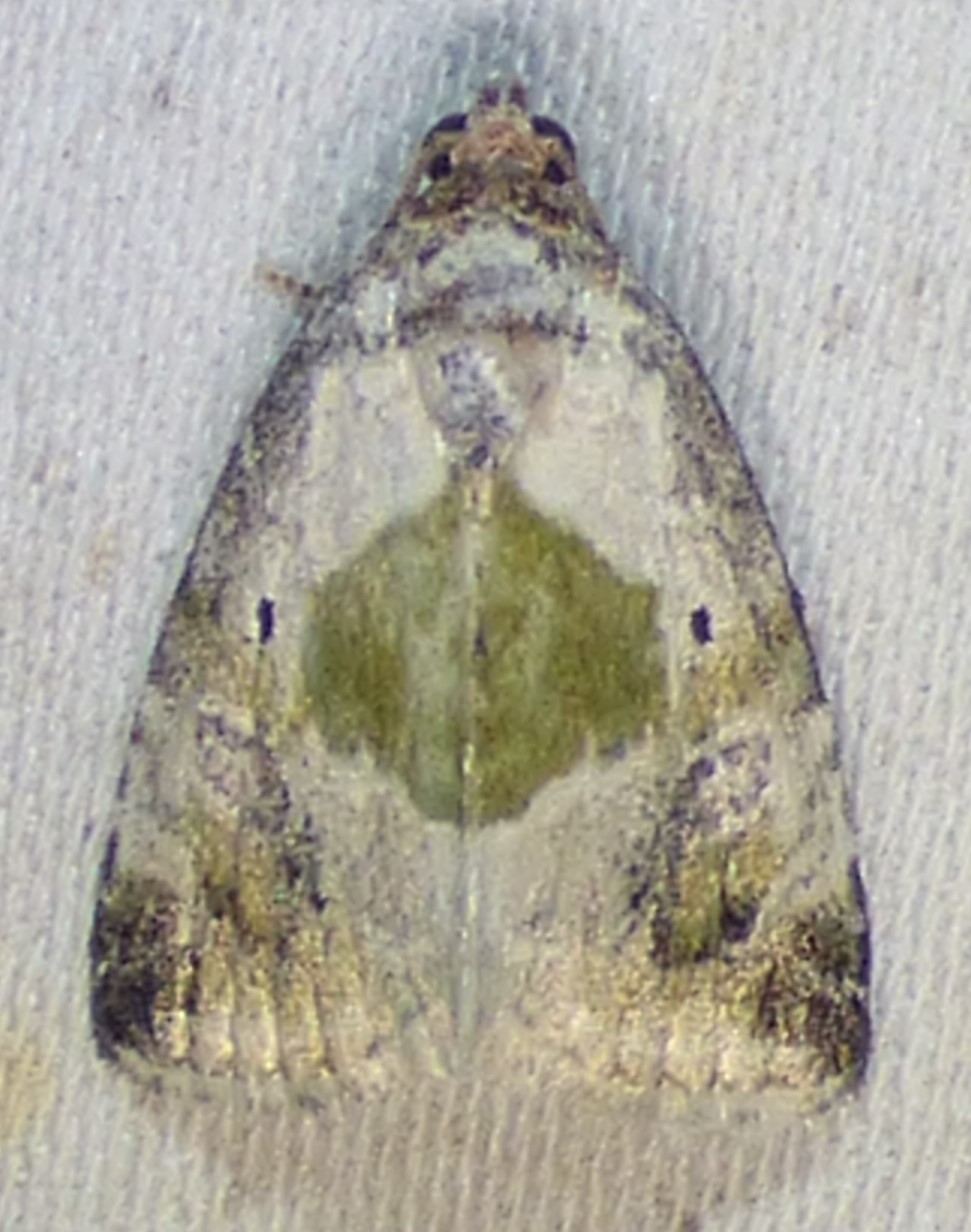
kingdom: Animalia
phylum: Arthropoda
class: Insecta
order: Lepidoptera
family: Noctuidae
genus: Maliattha
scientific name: Maliattha synochitis
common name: Black-dotted glyph
